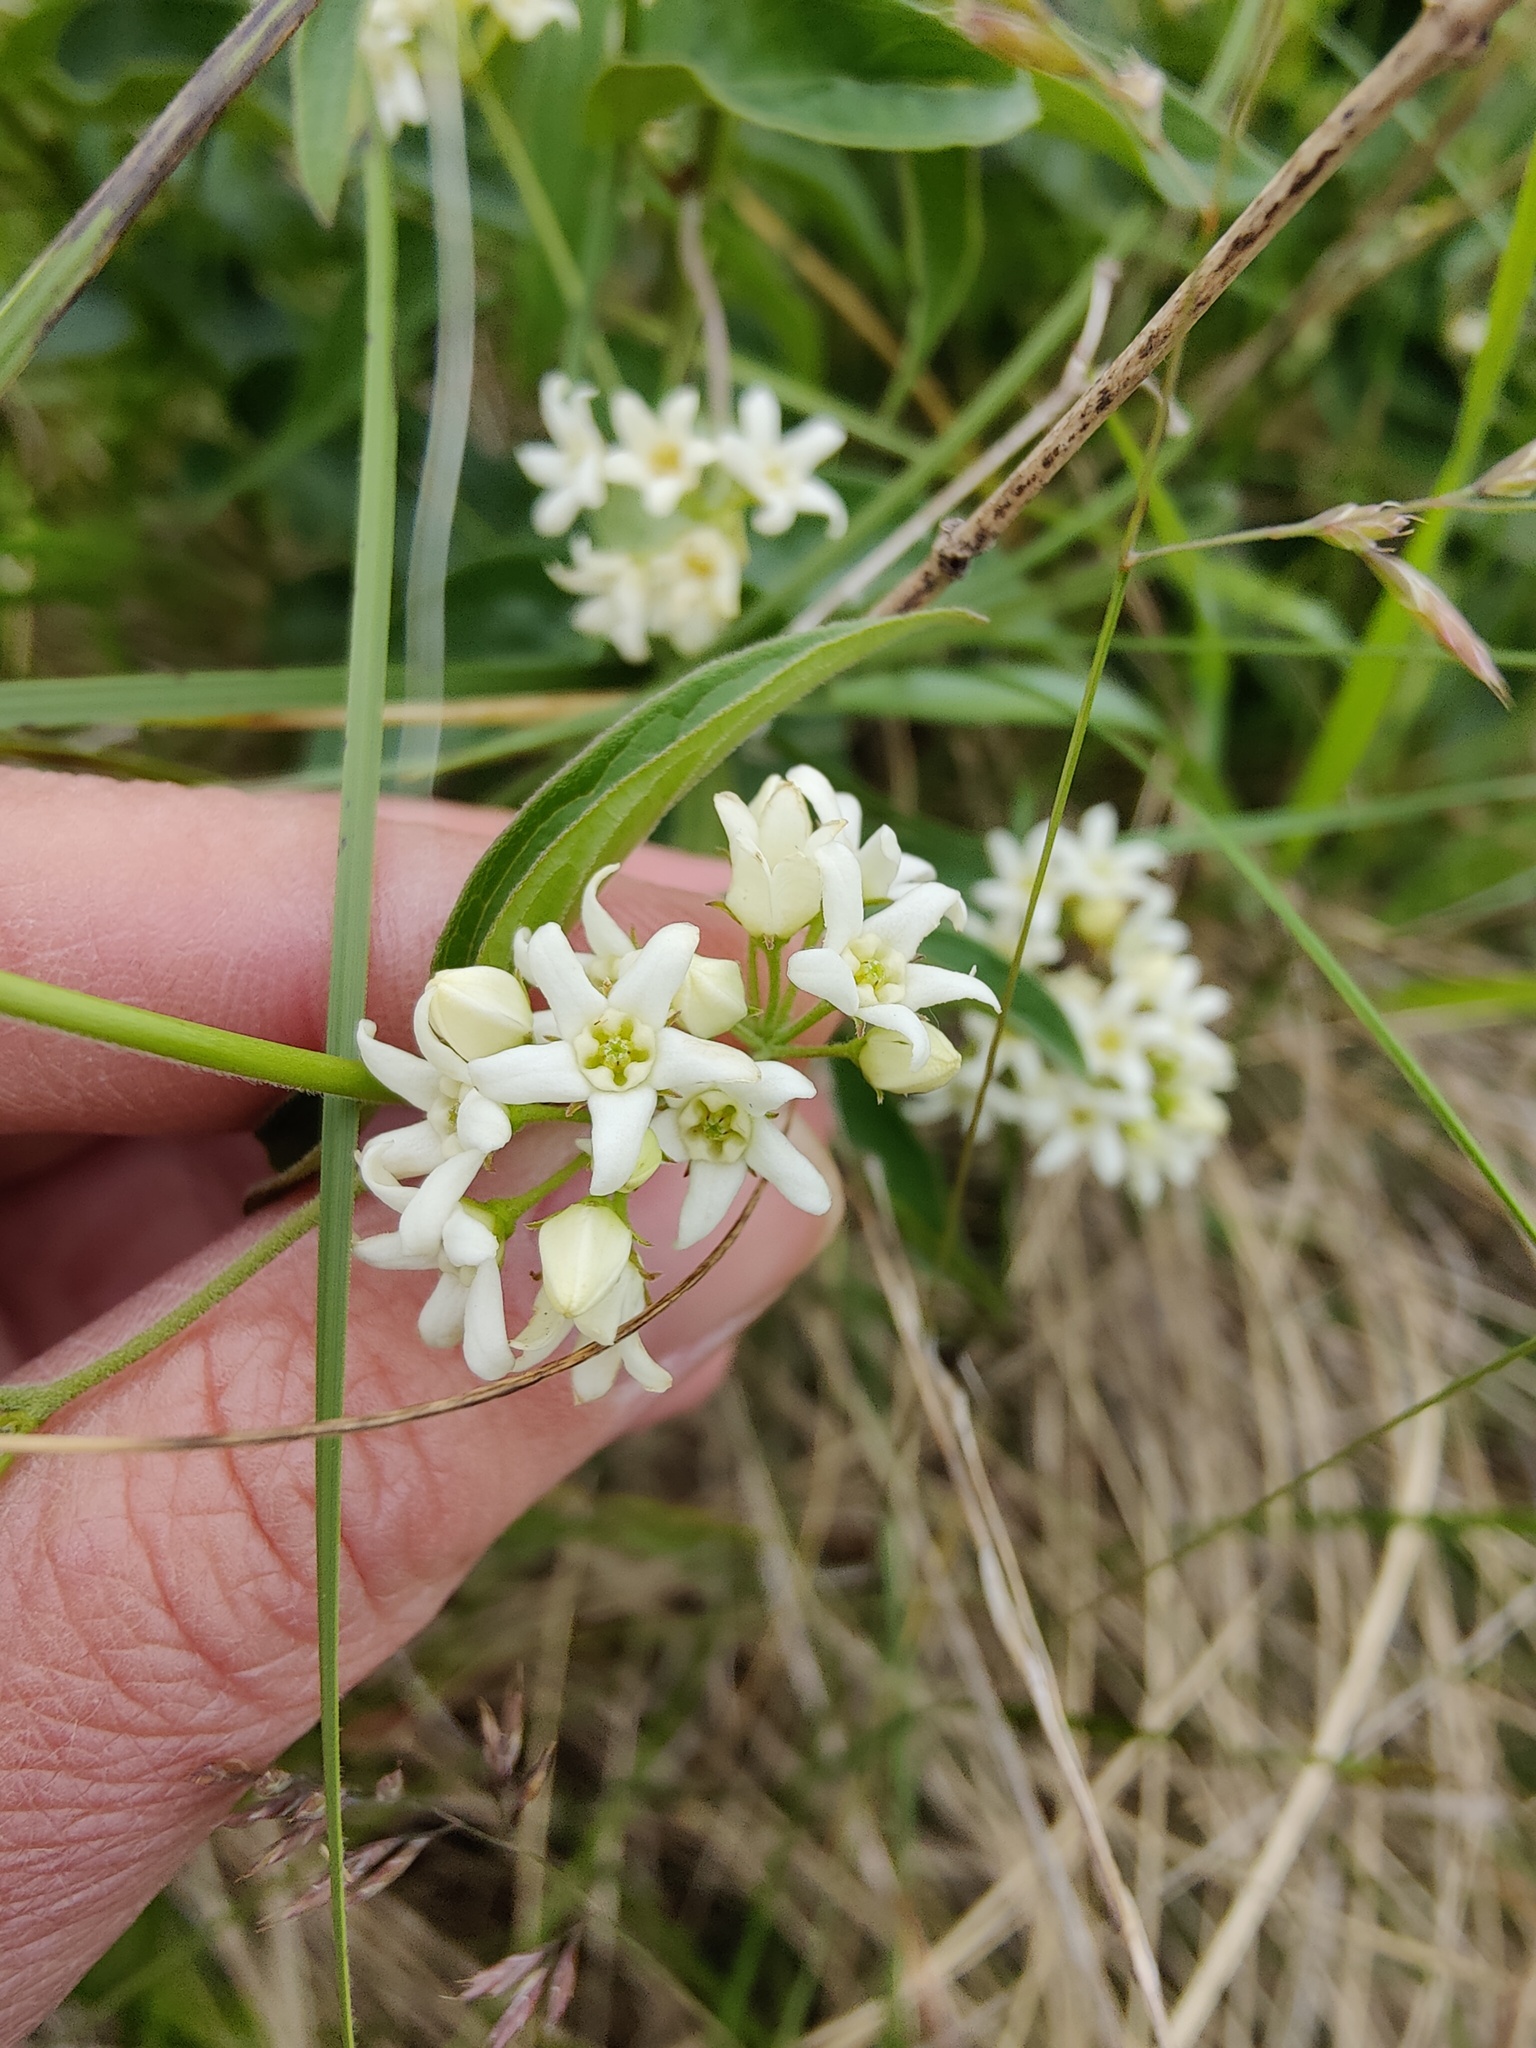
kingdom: Plantae
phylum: Tracheophyta
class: Magnoliopsida
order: Gentianales
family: Apocynaceae
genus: Vincetoxicum
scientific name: Vincetoxicum hirundinaria
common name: White swallowwort
